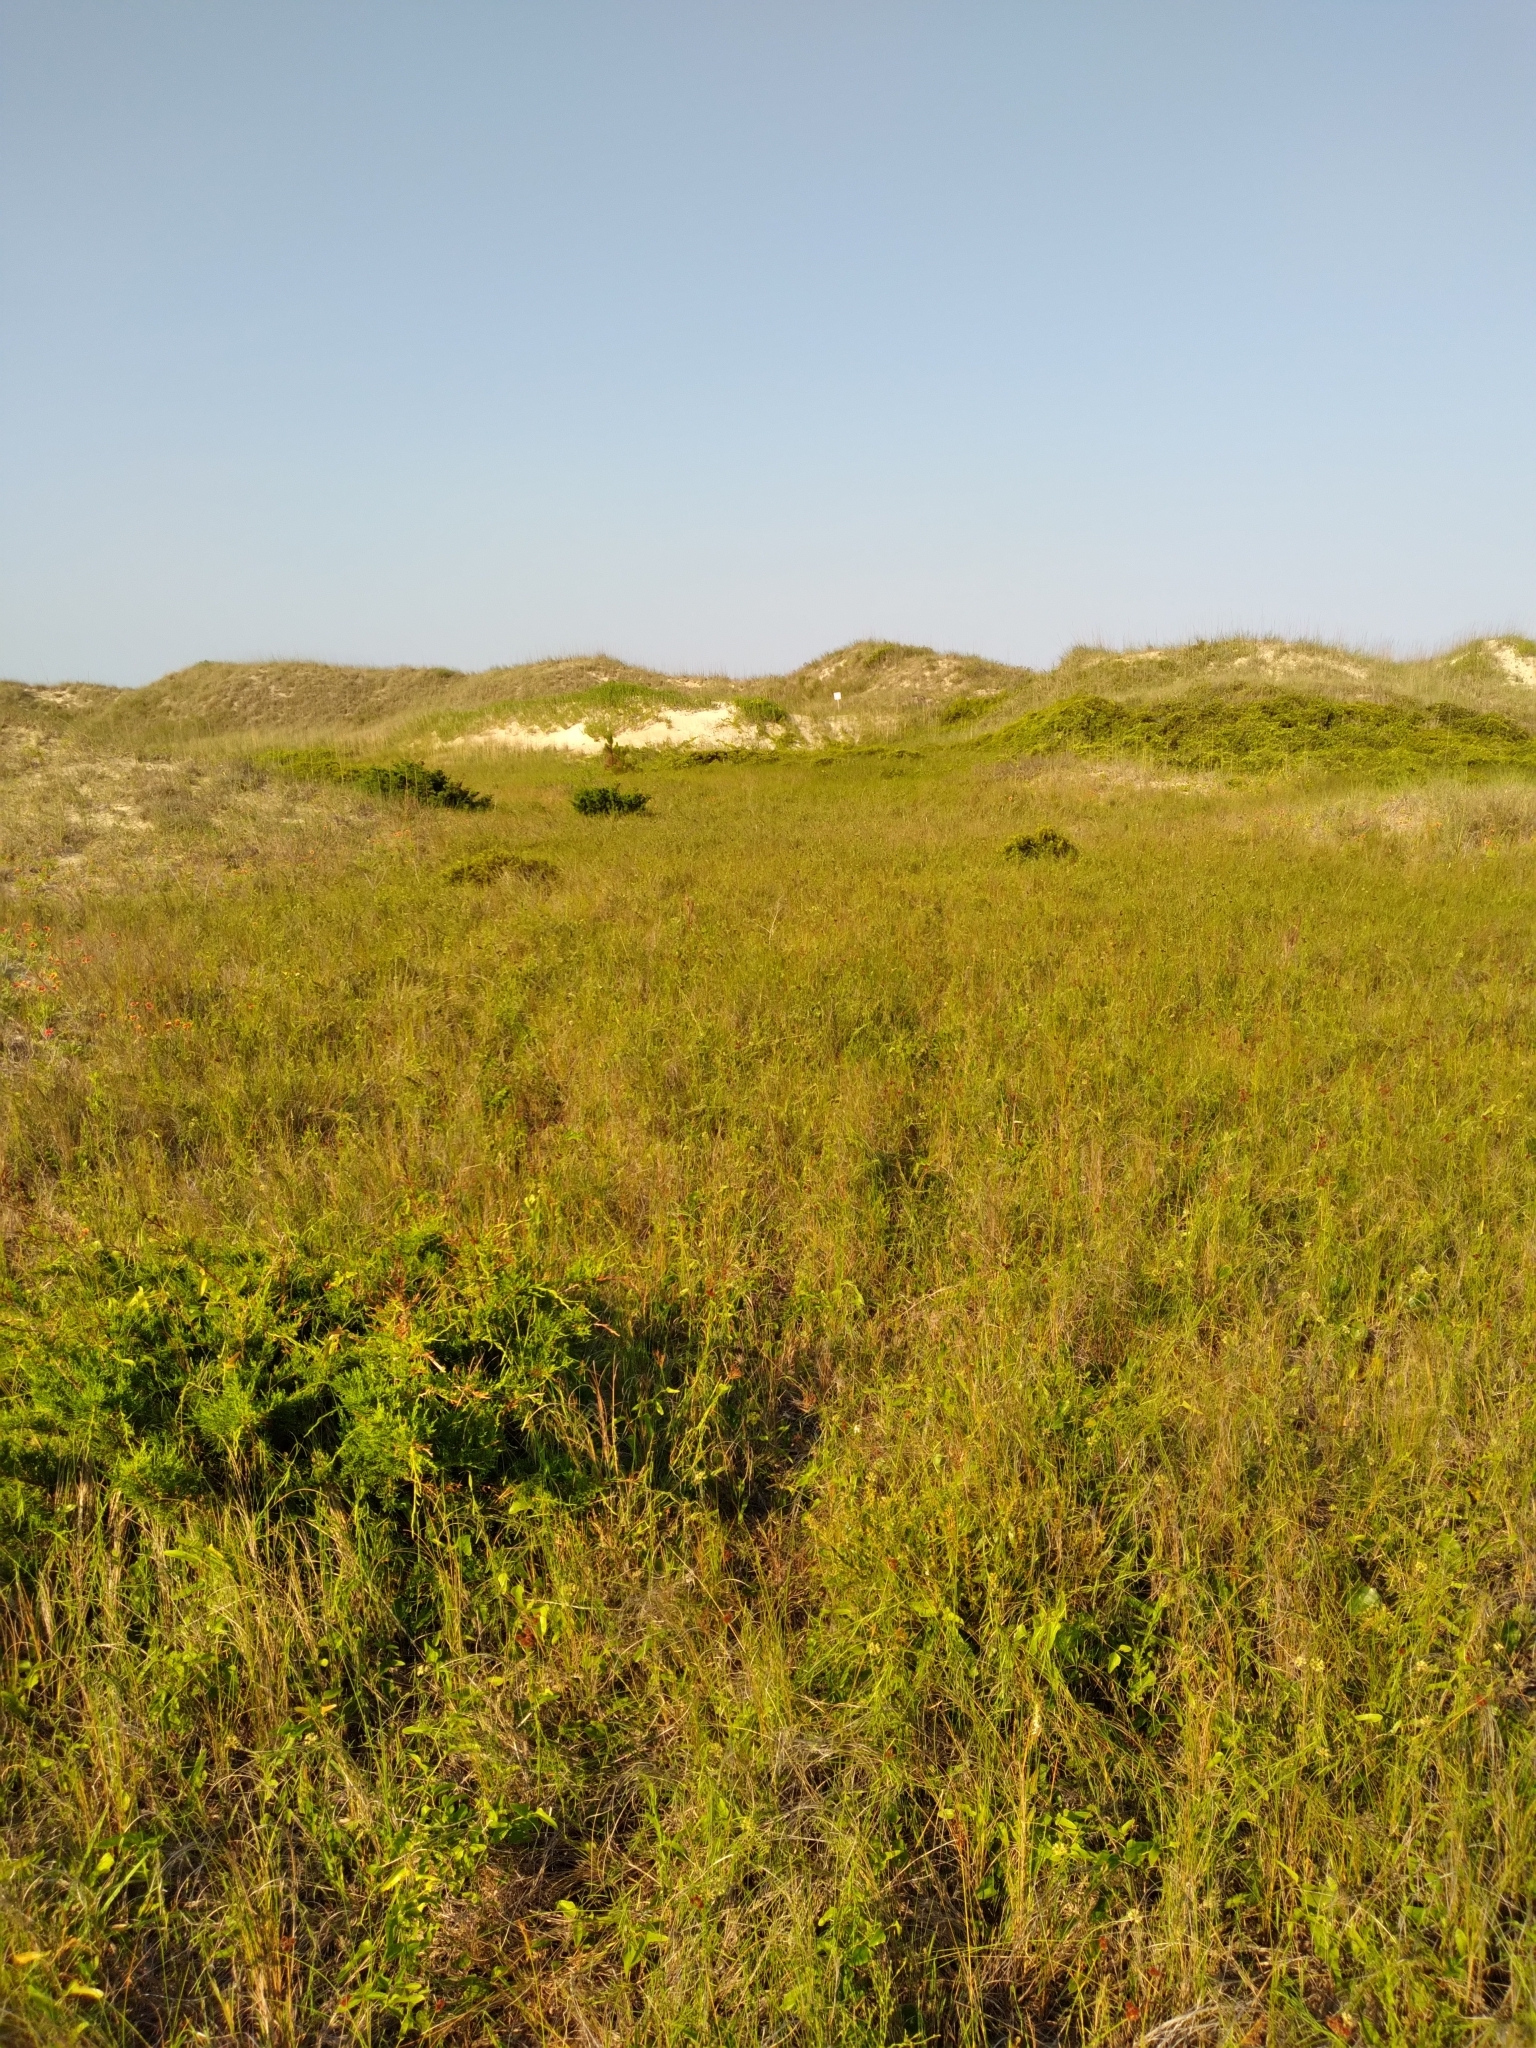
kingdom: Plantae
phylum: Tracheophyta
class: Magnoliopsida
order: Gentianales
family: Apocynaceae
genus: Pattalias
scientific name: Pattalias
